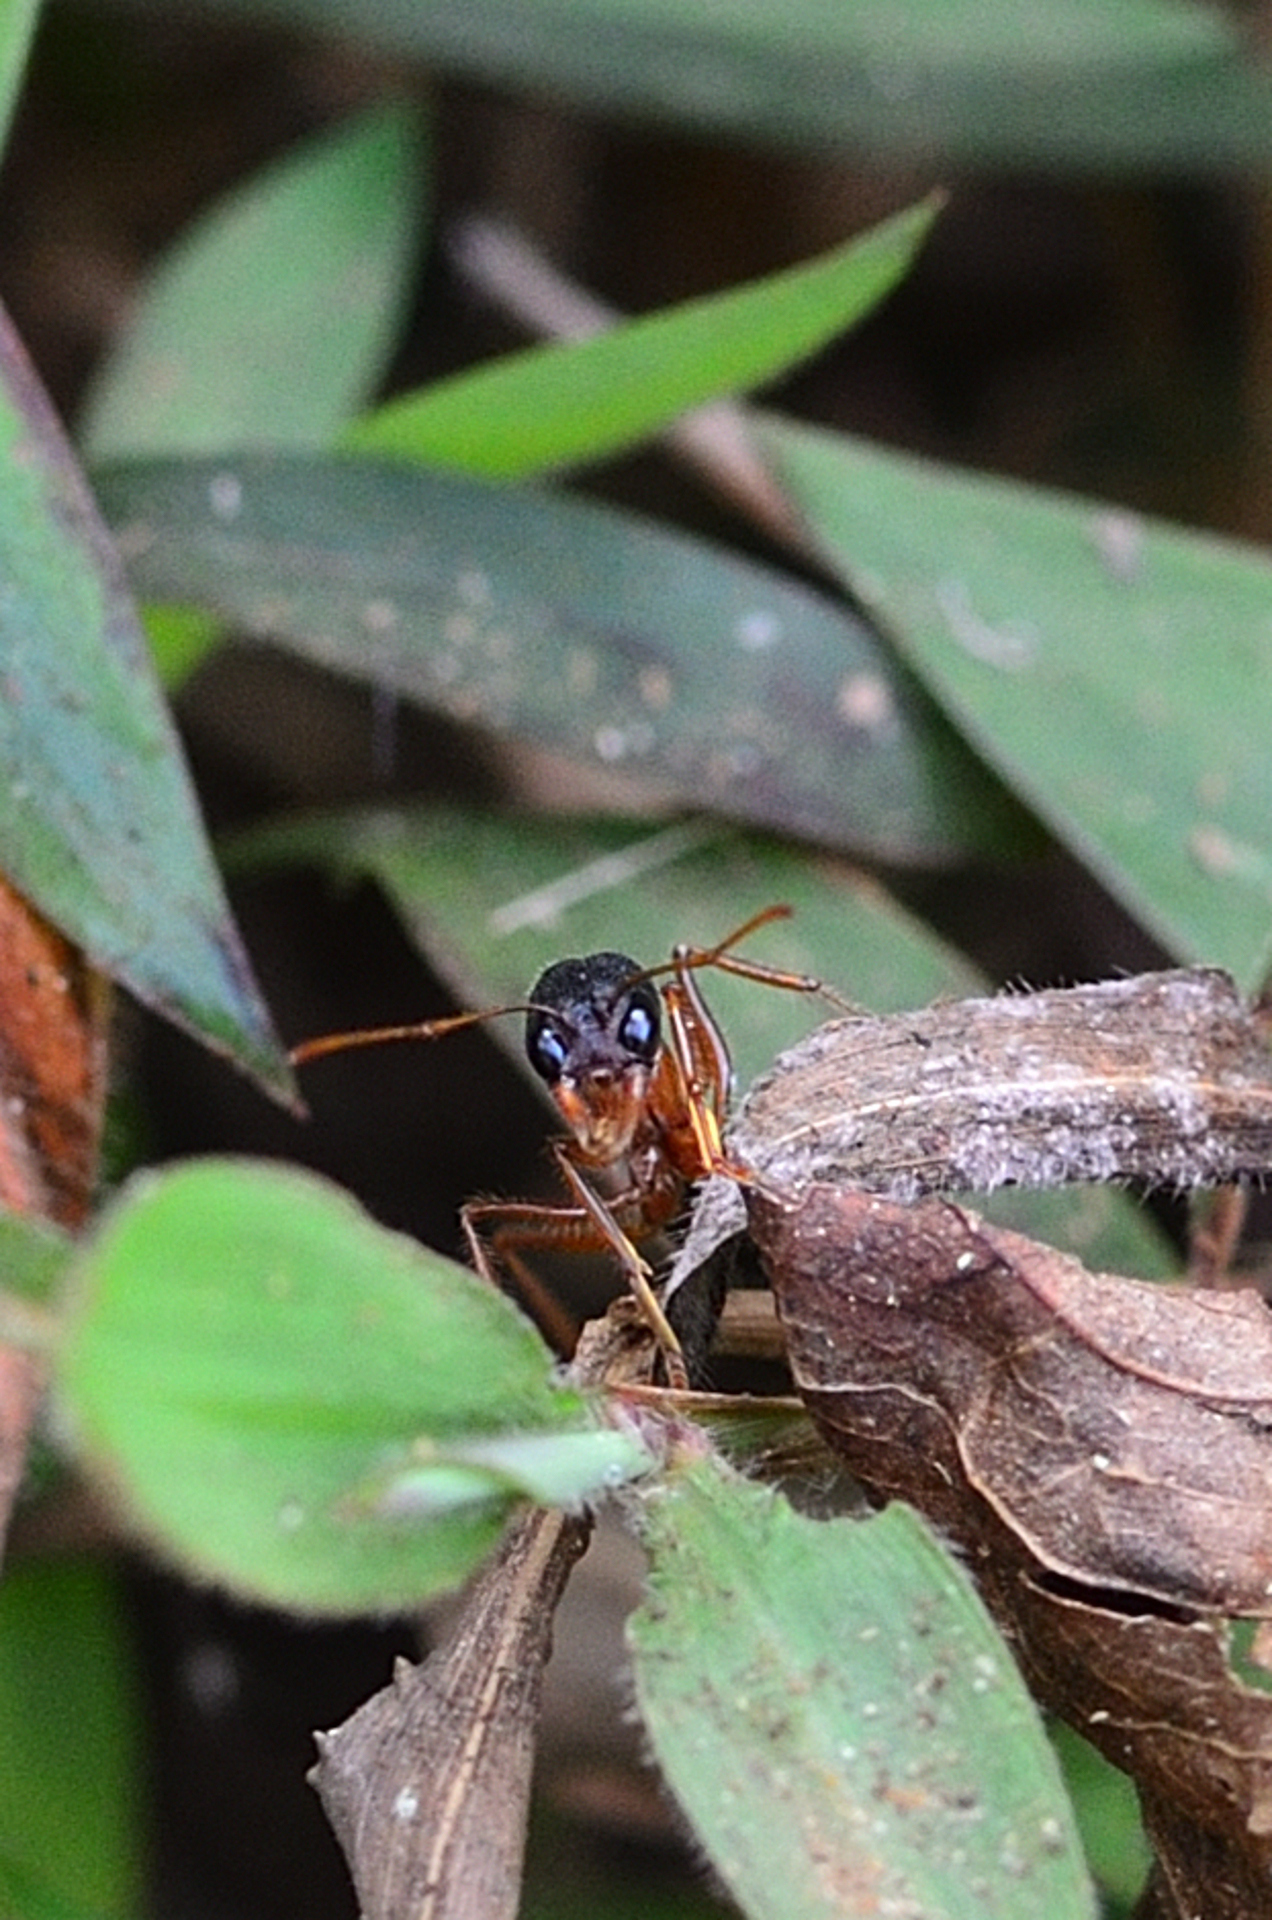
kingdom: Animalia
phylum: Arthropoda
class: Insecta
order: Hymenoptera
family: Formicidae
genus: Harpegnathos
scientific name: Harpegnathos saltator
